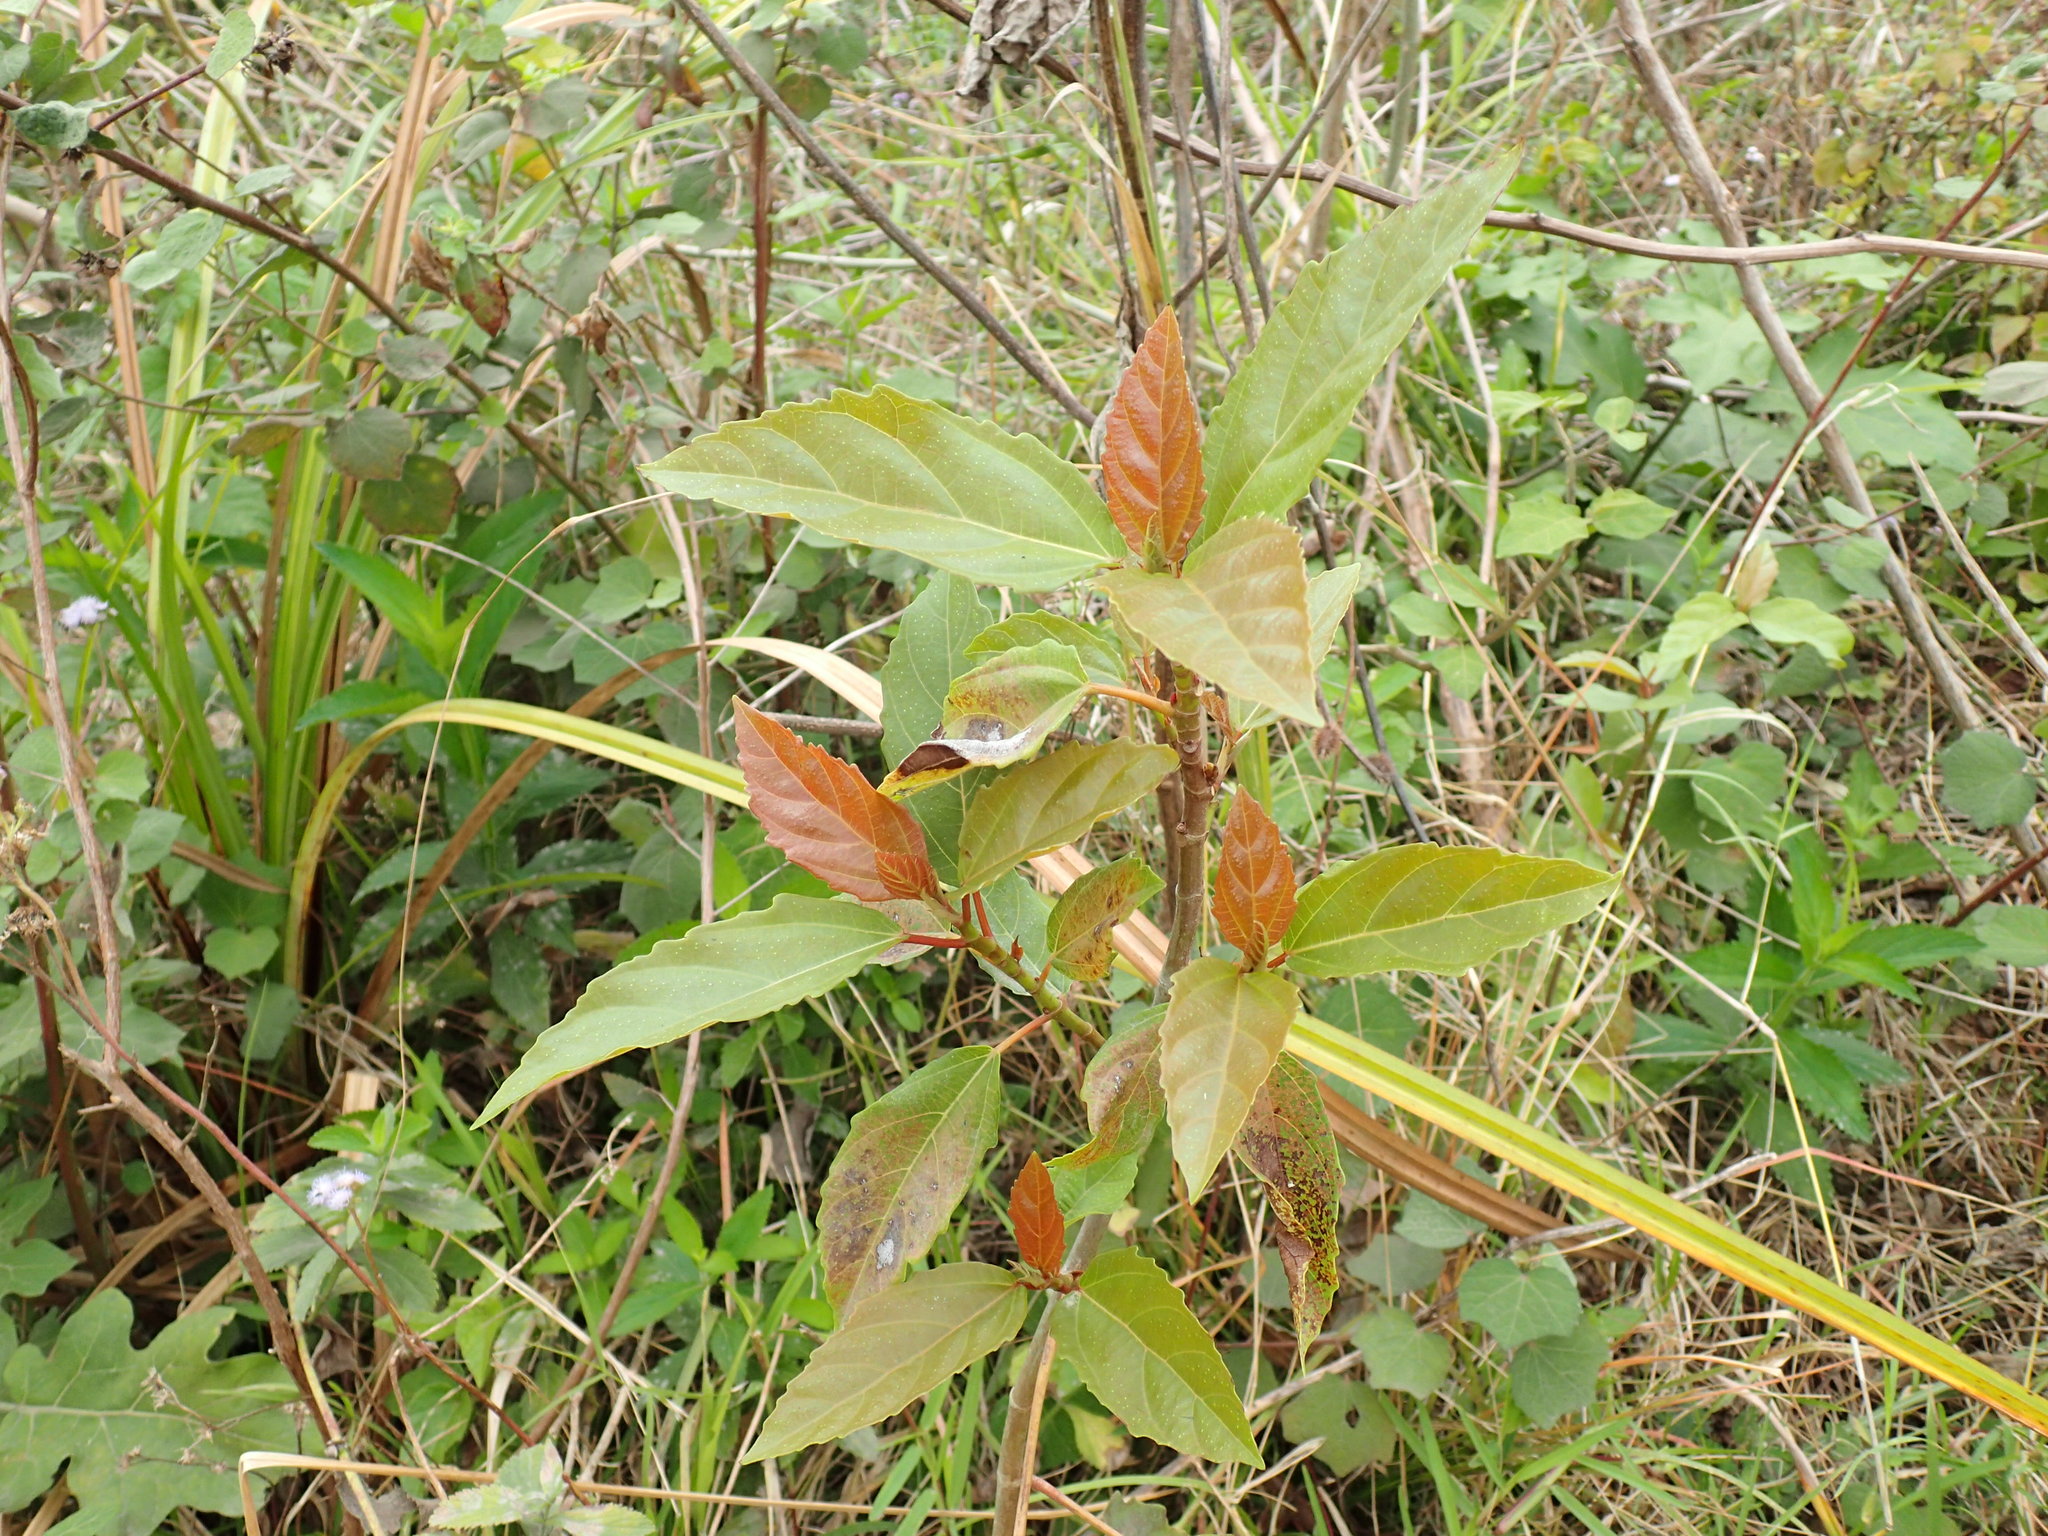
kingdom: Plantae
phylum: Tracheophyta
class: Magnoliopsida
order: Rosales
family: Moraceae
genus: Ficus
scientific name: Ficus sur
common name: Cape fig
